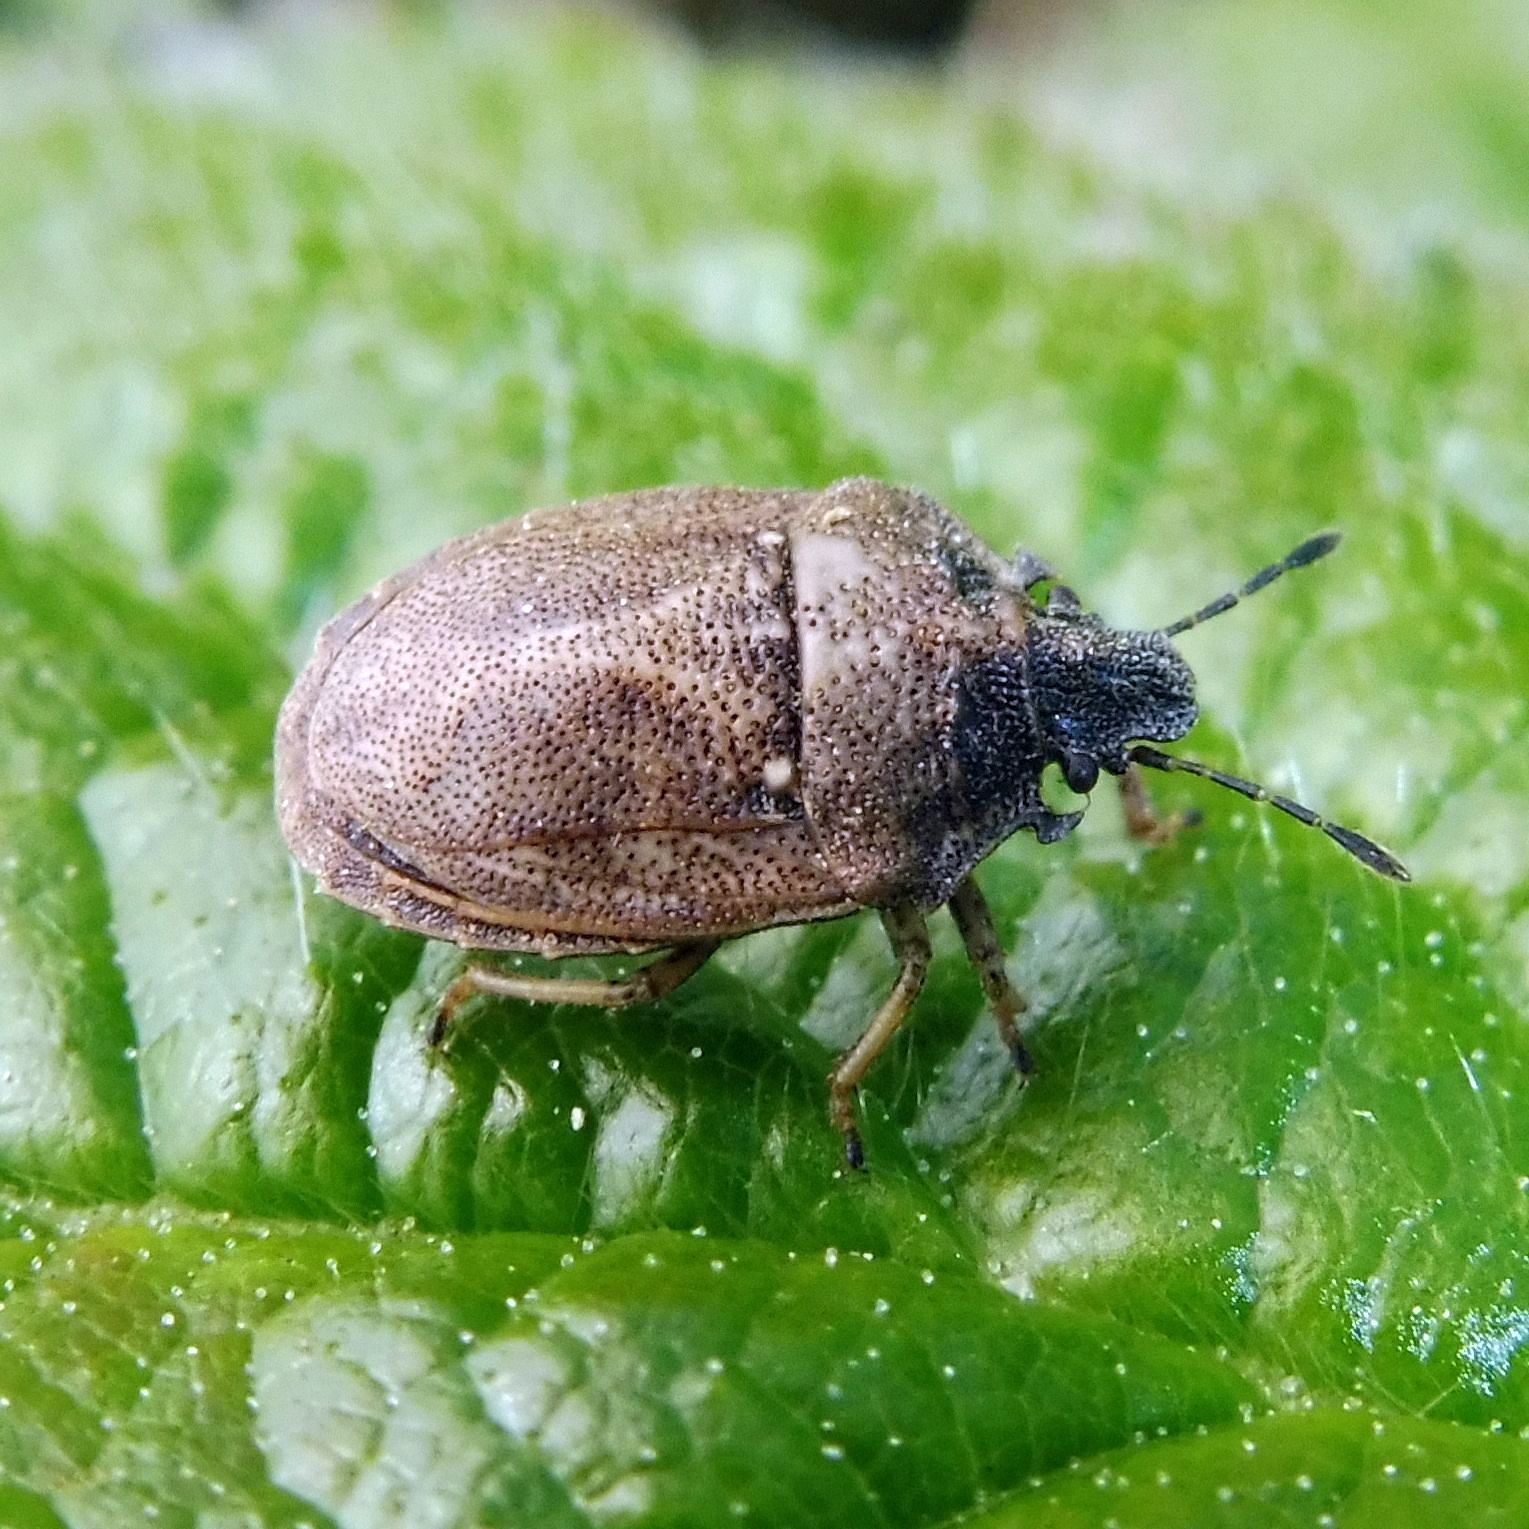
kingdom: Animalia
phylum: Arthropoda
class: Insecta
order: Hemiptera
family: Pentatomidae
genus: Podops
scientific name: Podops inunctus
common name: Turtle bug
